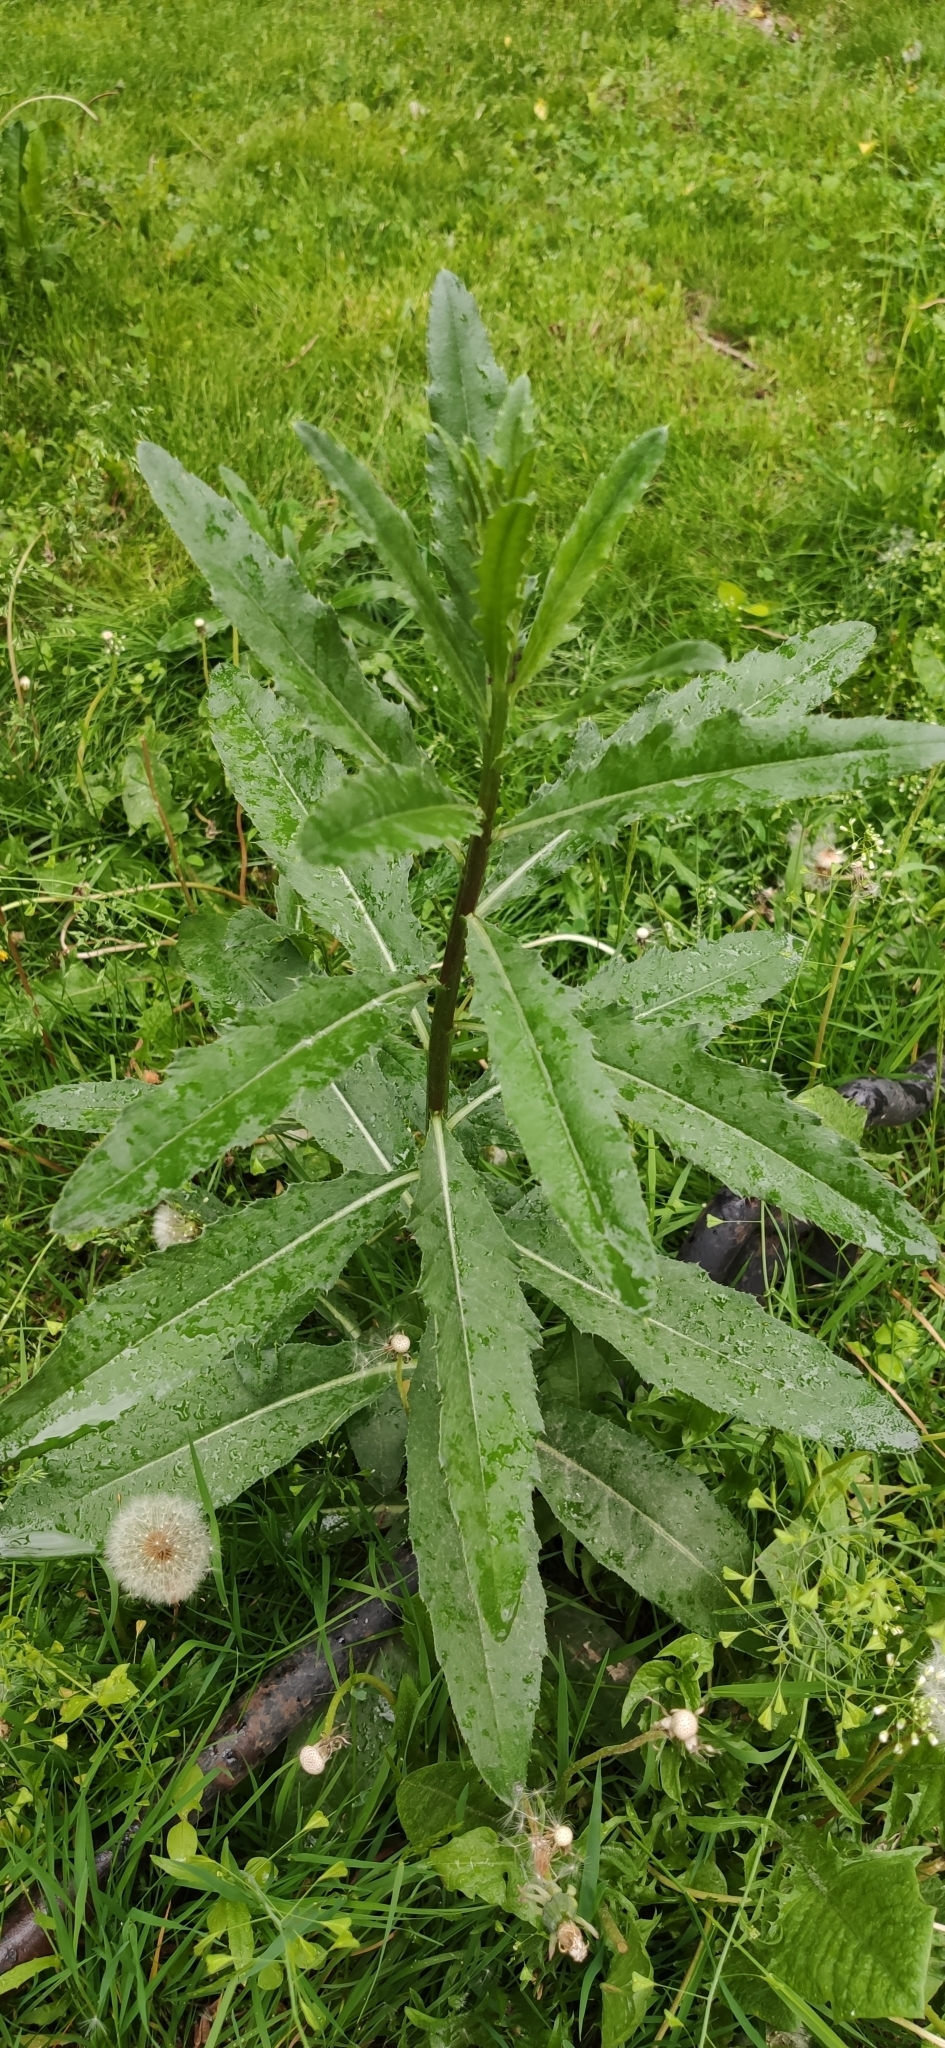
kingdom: Plantae
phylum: Tracheophyta
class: Magnoliopsida
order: Asterales
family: Asteraceae
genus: Cirsium
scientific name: Cirsium arvense
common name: Creeping thistle
